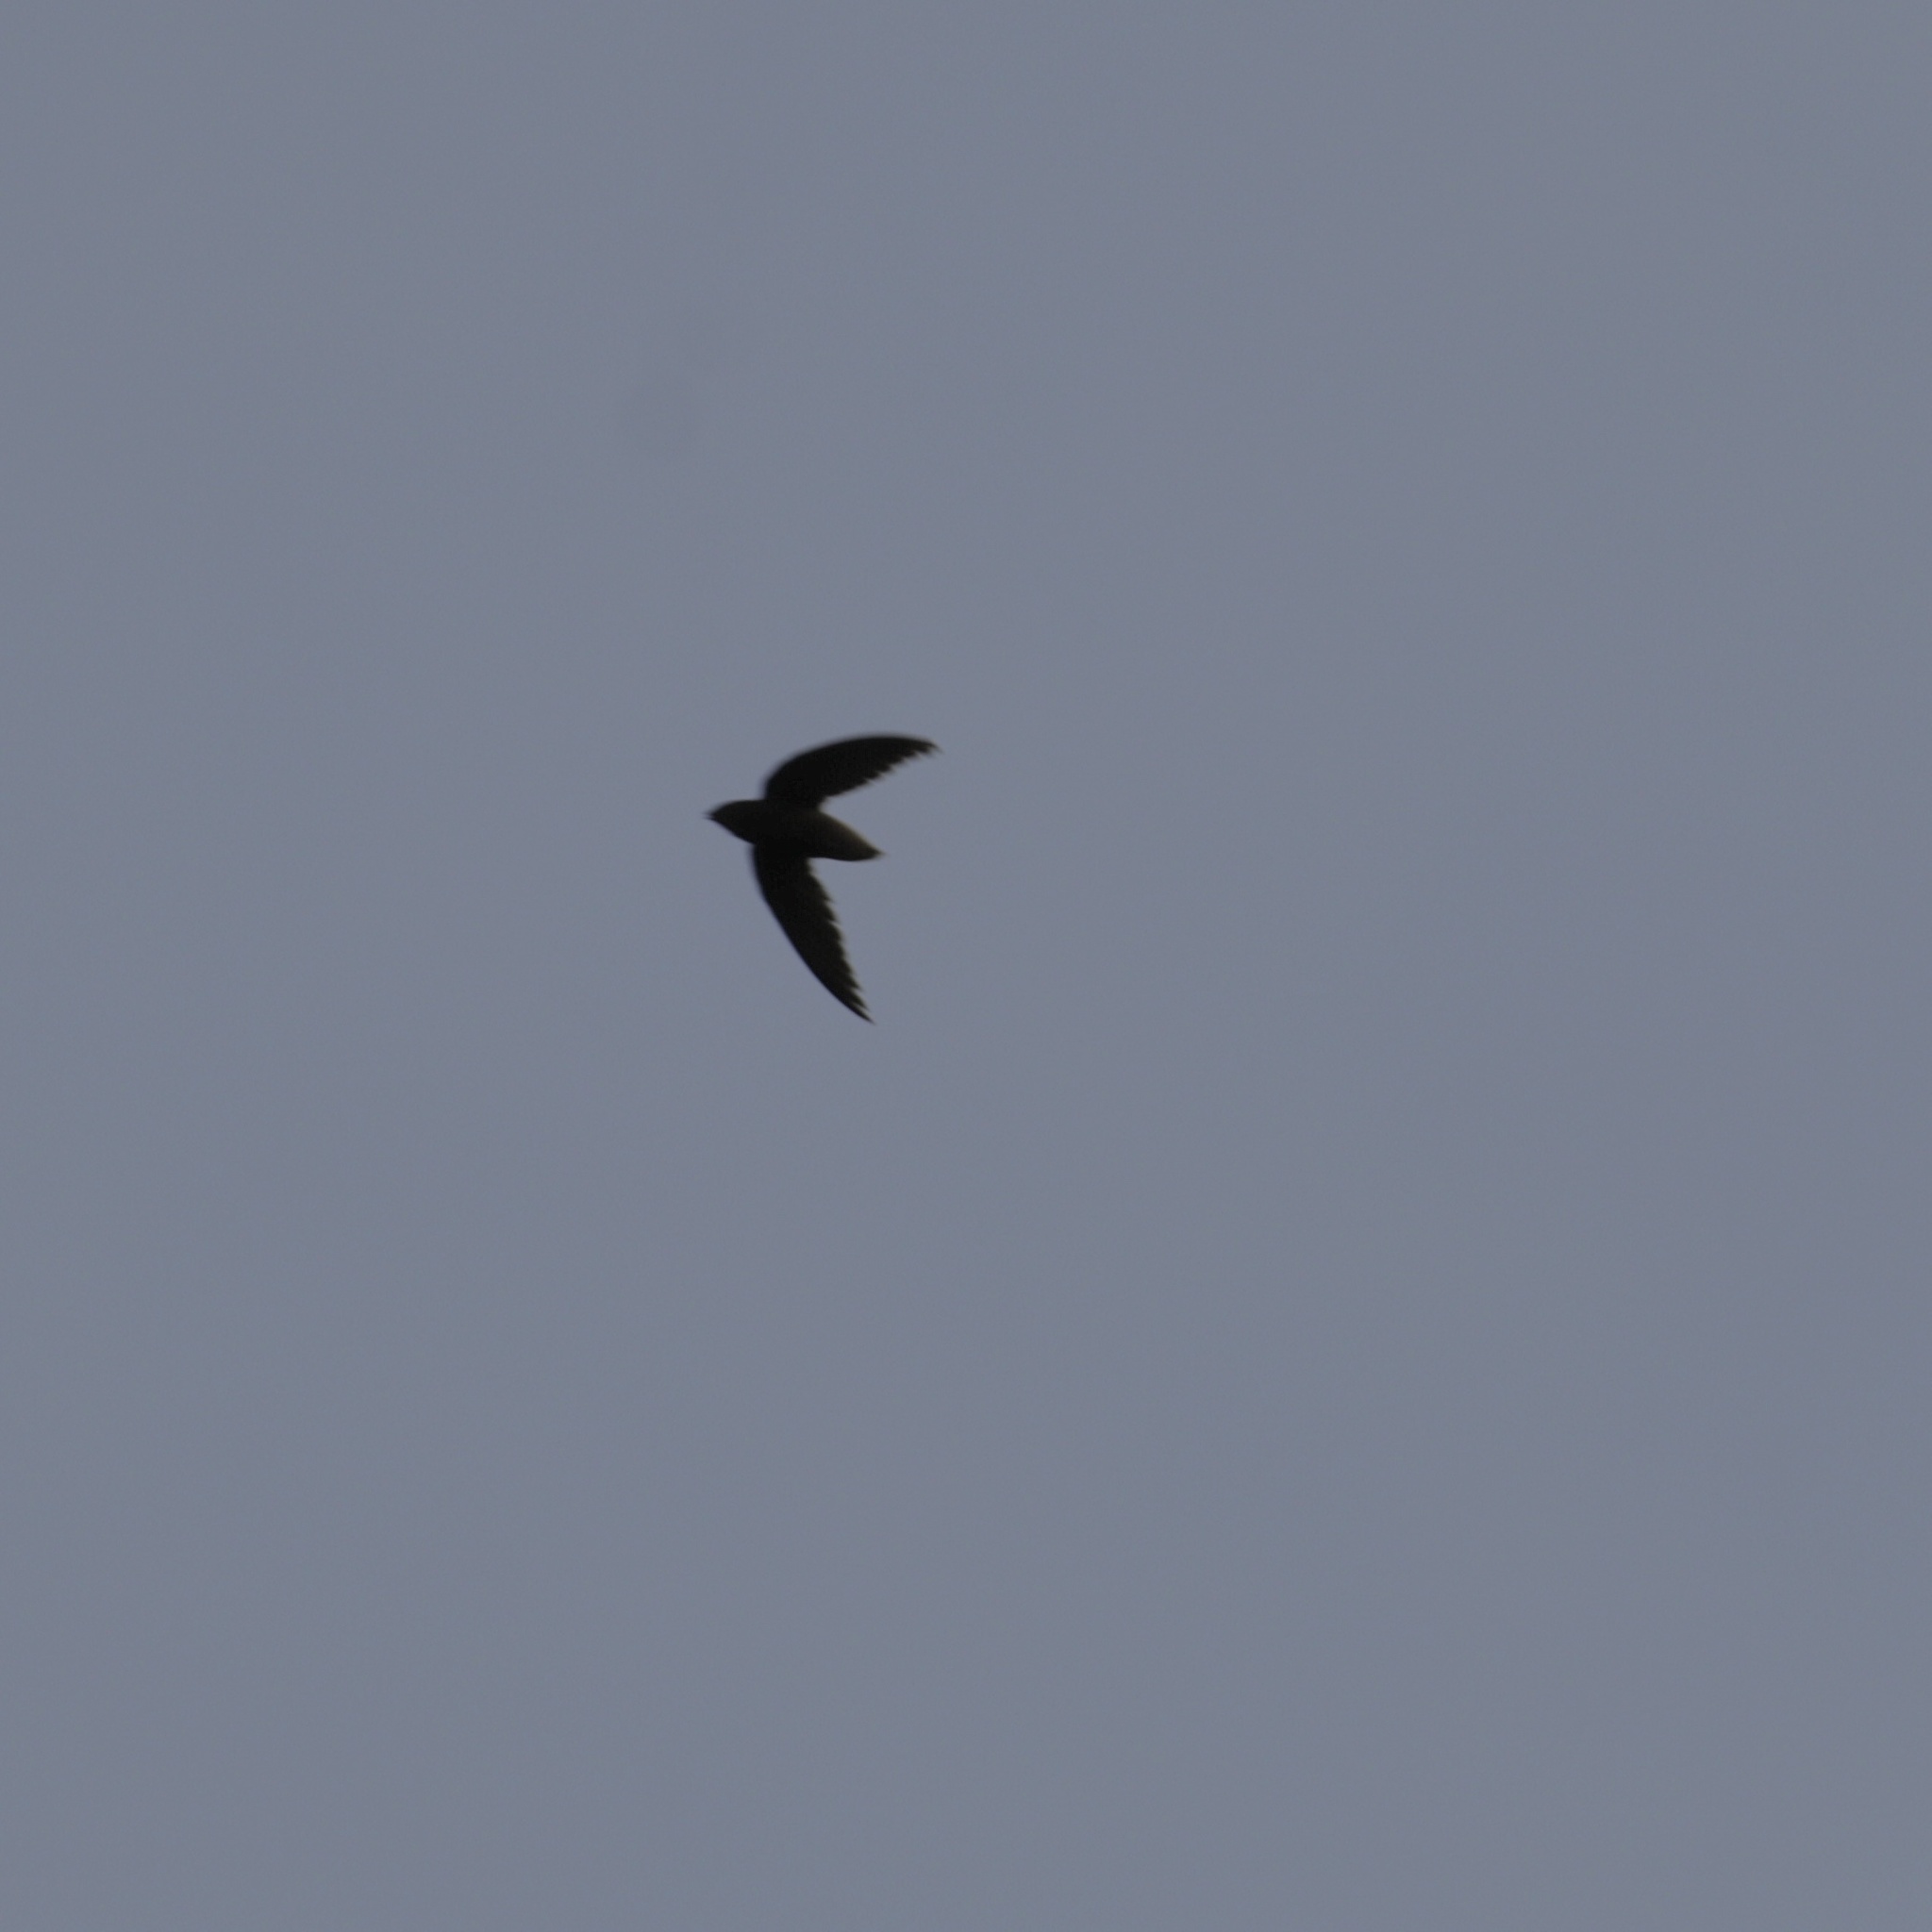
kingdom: Animalia
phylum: Chordata
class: Aves
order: Apodiformes
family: Apodidae
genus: Chaetura
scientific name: Chaetura brachyura
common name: Short-tailed swift
